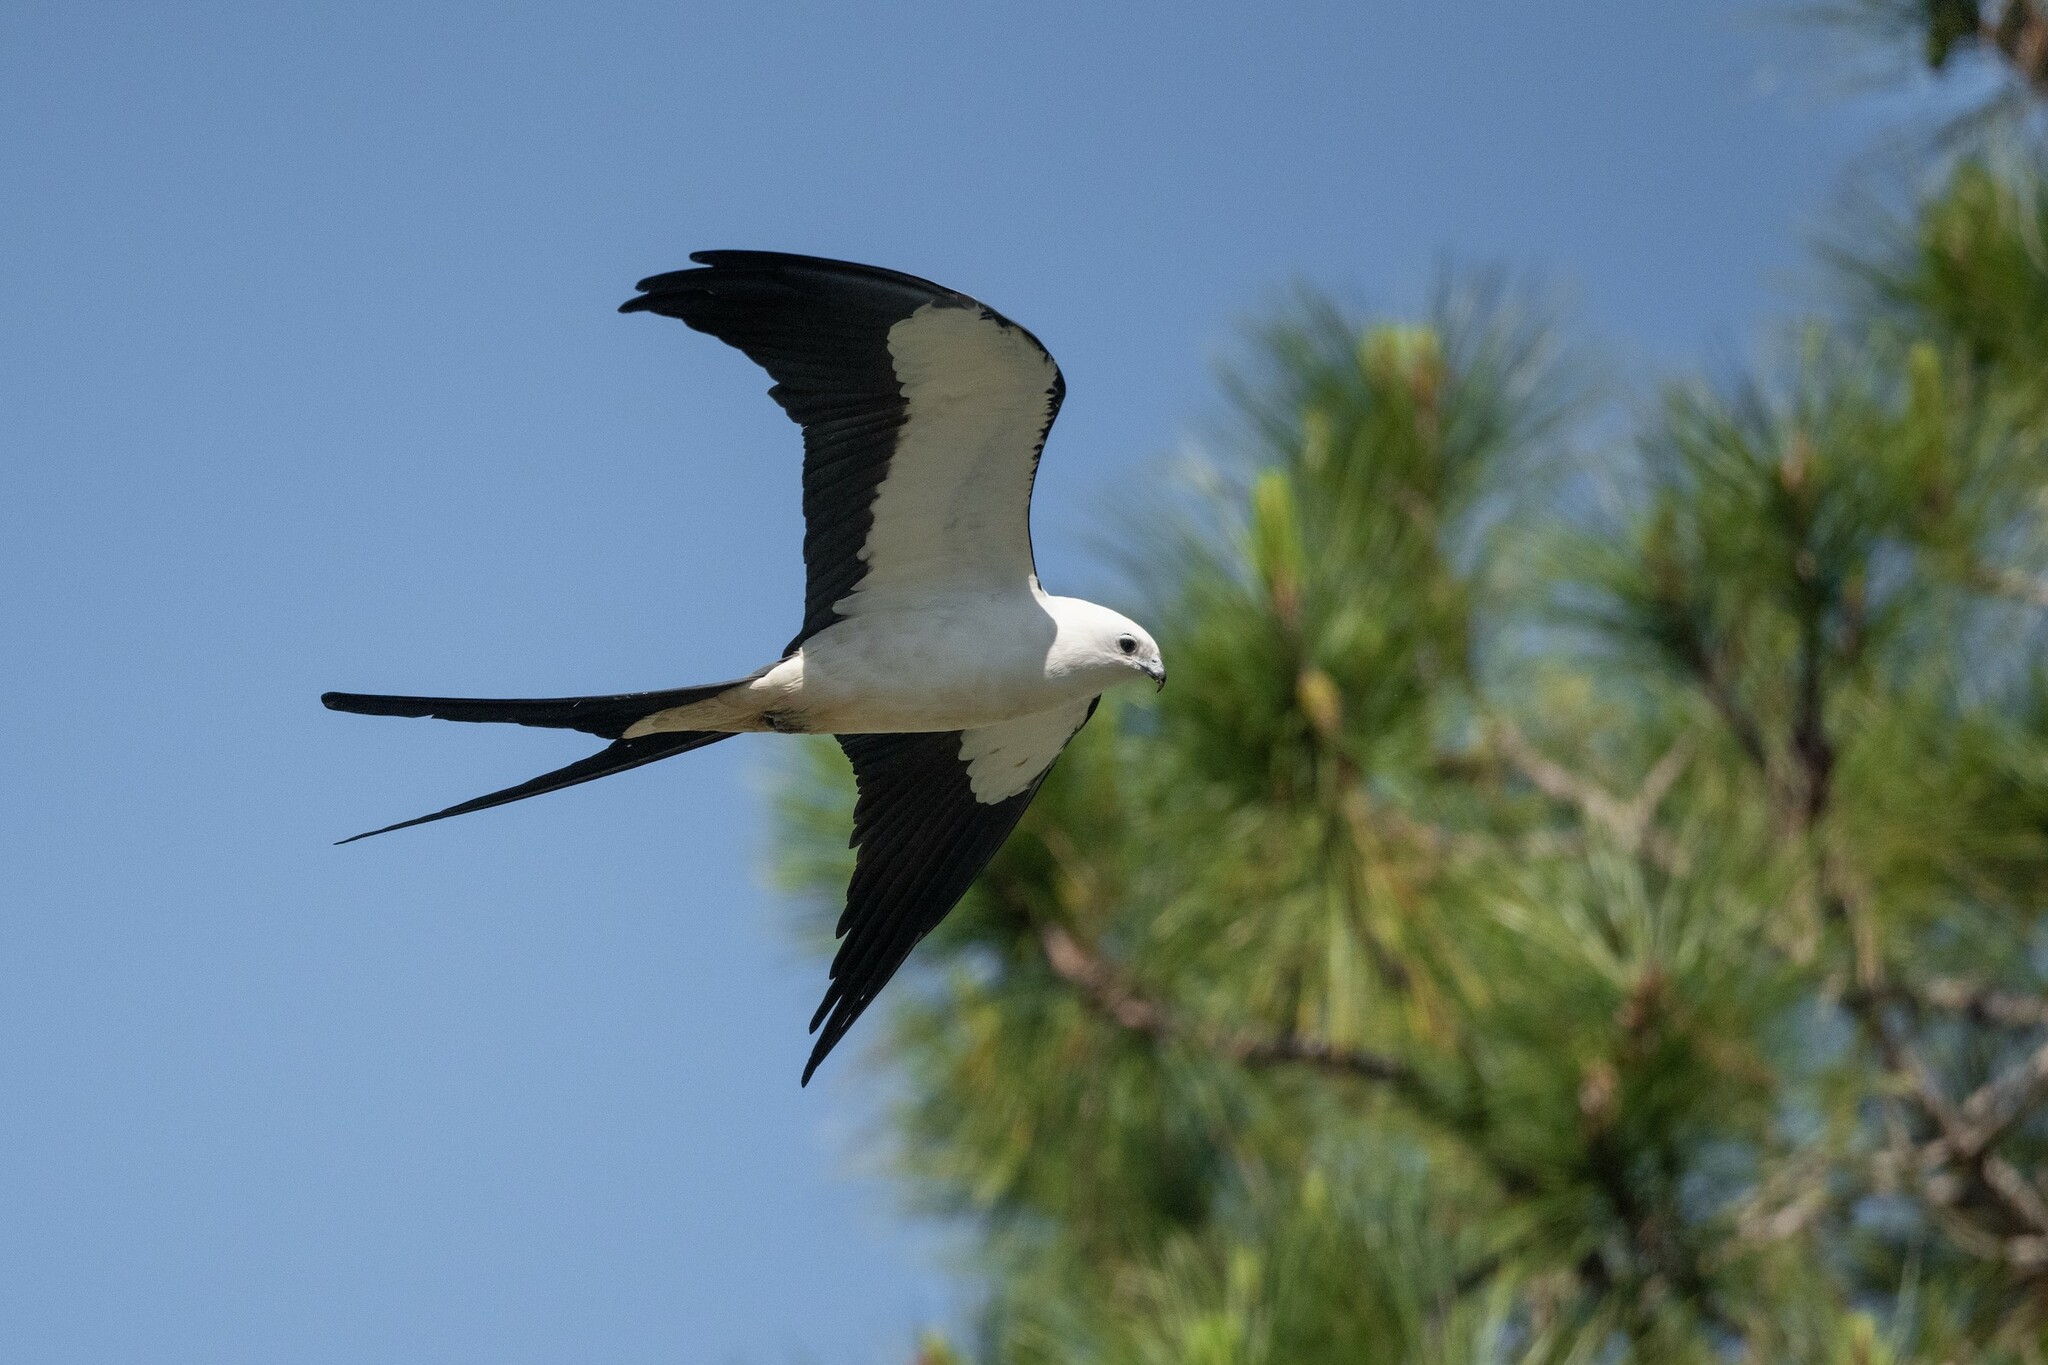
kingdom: Animalia
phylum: Chordata
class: Aves
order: Accipitriformes
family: Accipitridae
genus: Elanoides
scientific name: Elanoides forficatus
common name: Swallow-tailed kite
